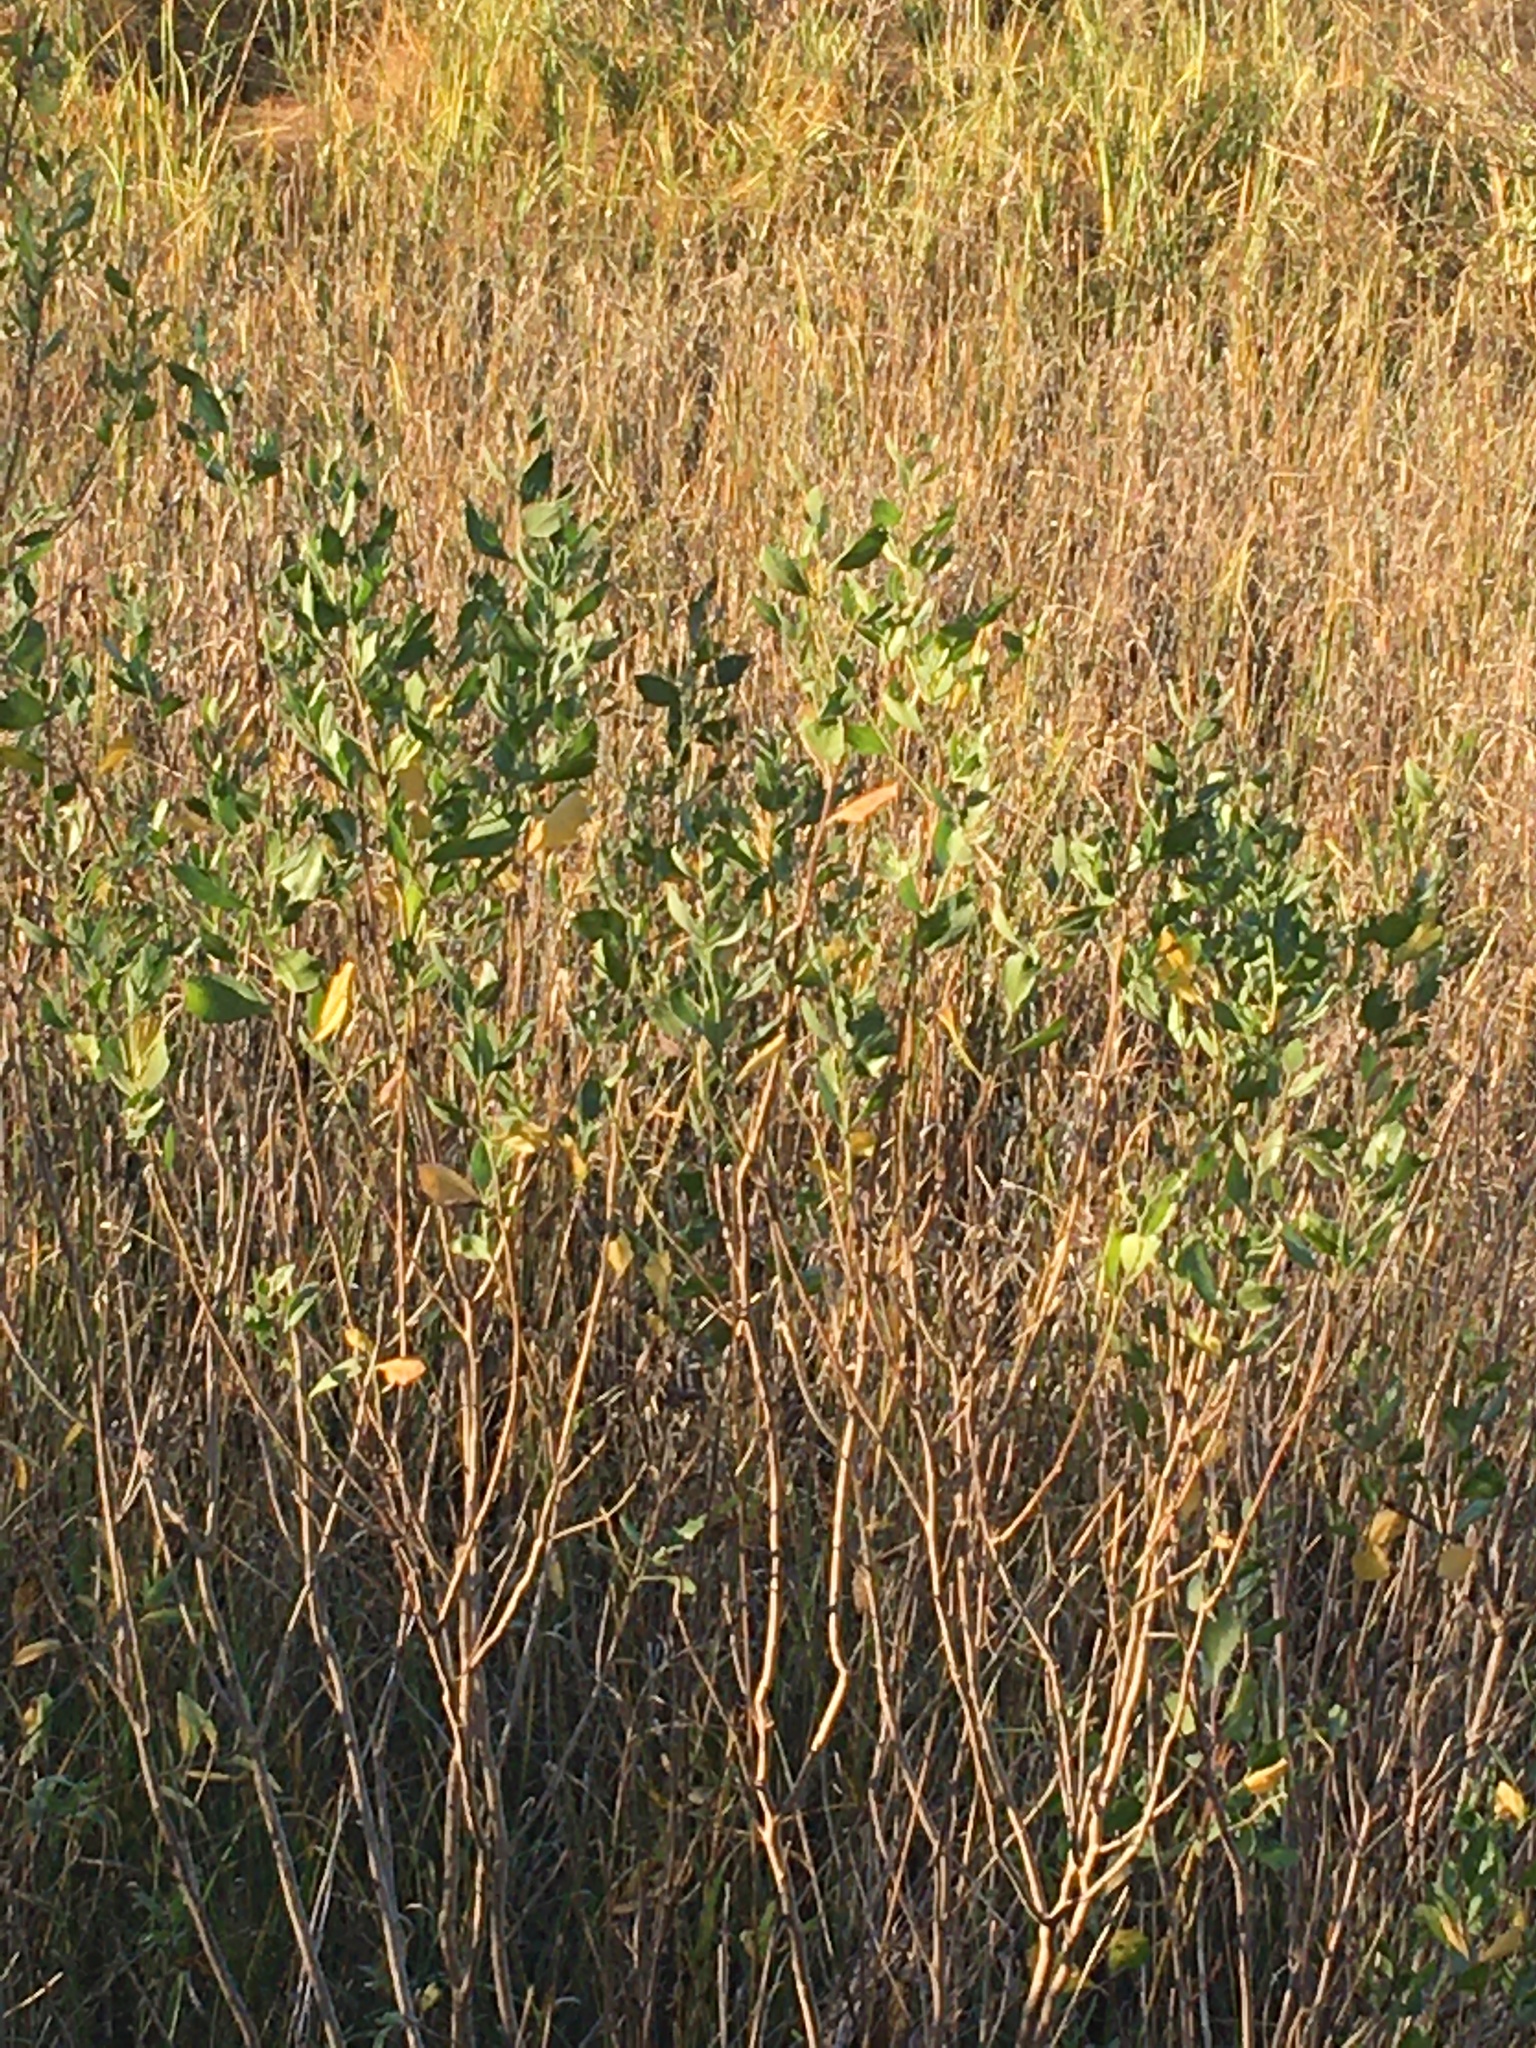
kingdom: Plantae
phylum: Tracheophyta
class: Magnoliopsida
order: Asterales
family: Asteraceae
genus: Baccharis
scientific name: Baccharis halimifolia
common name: Eastern baccharis
